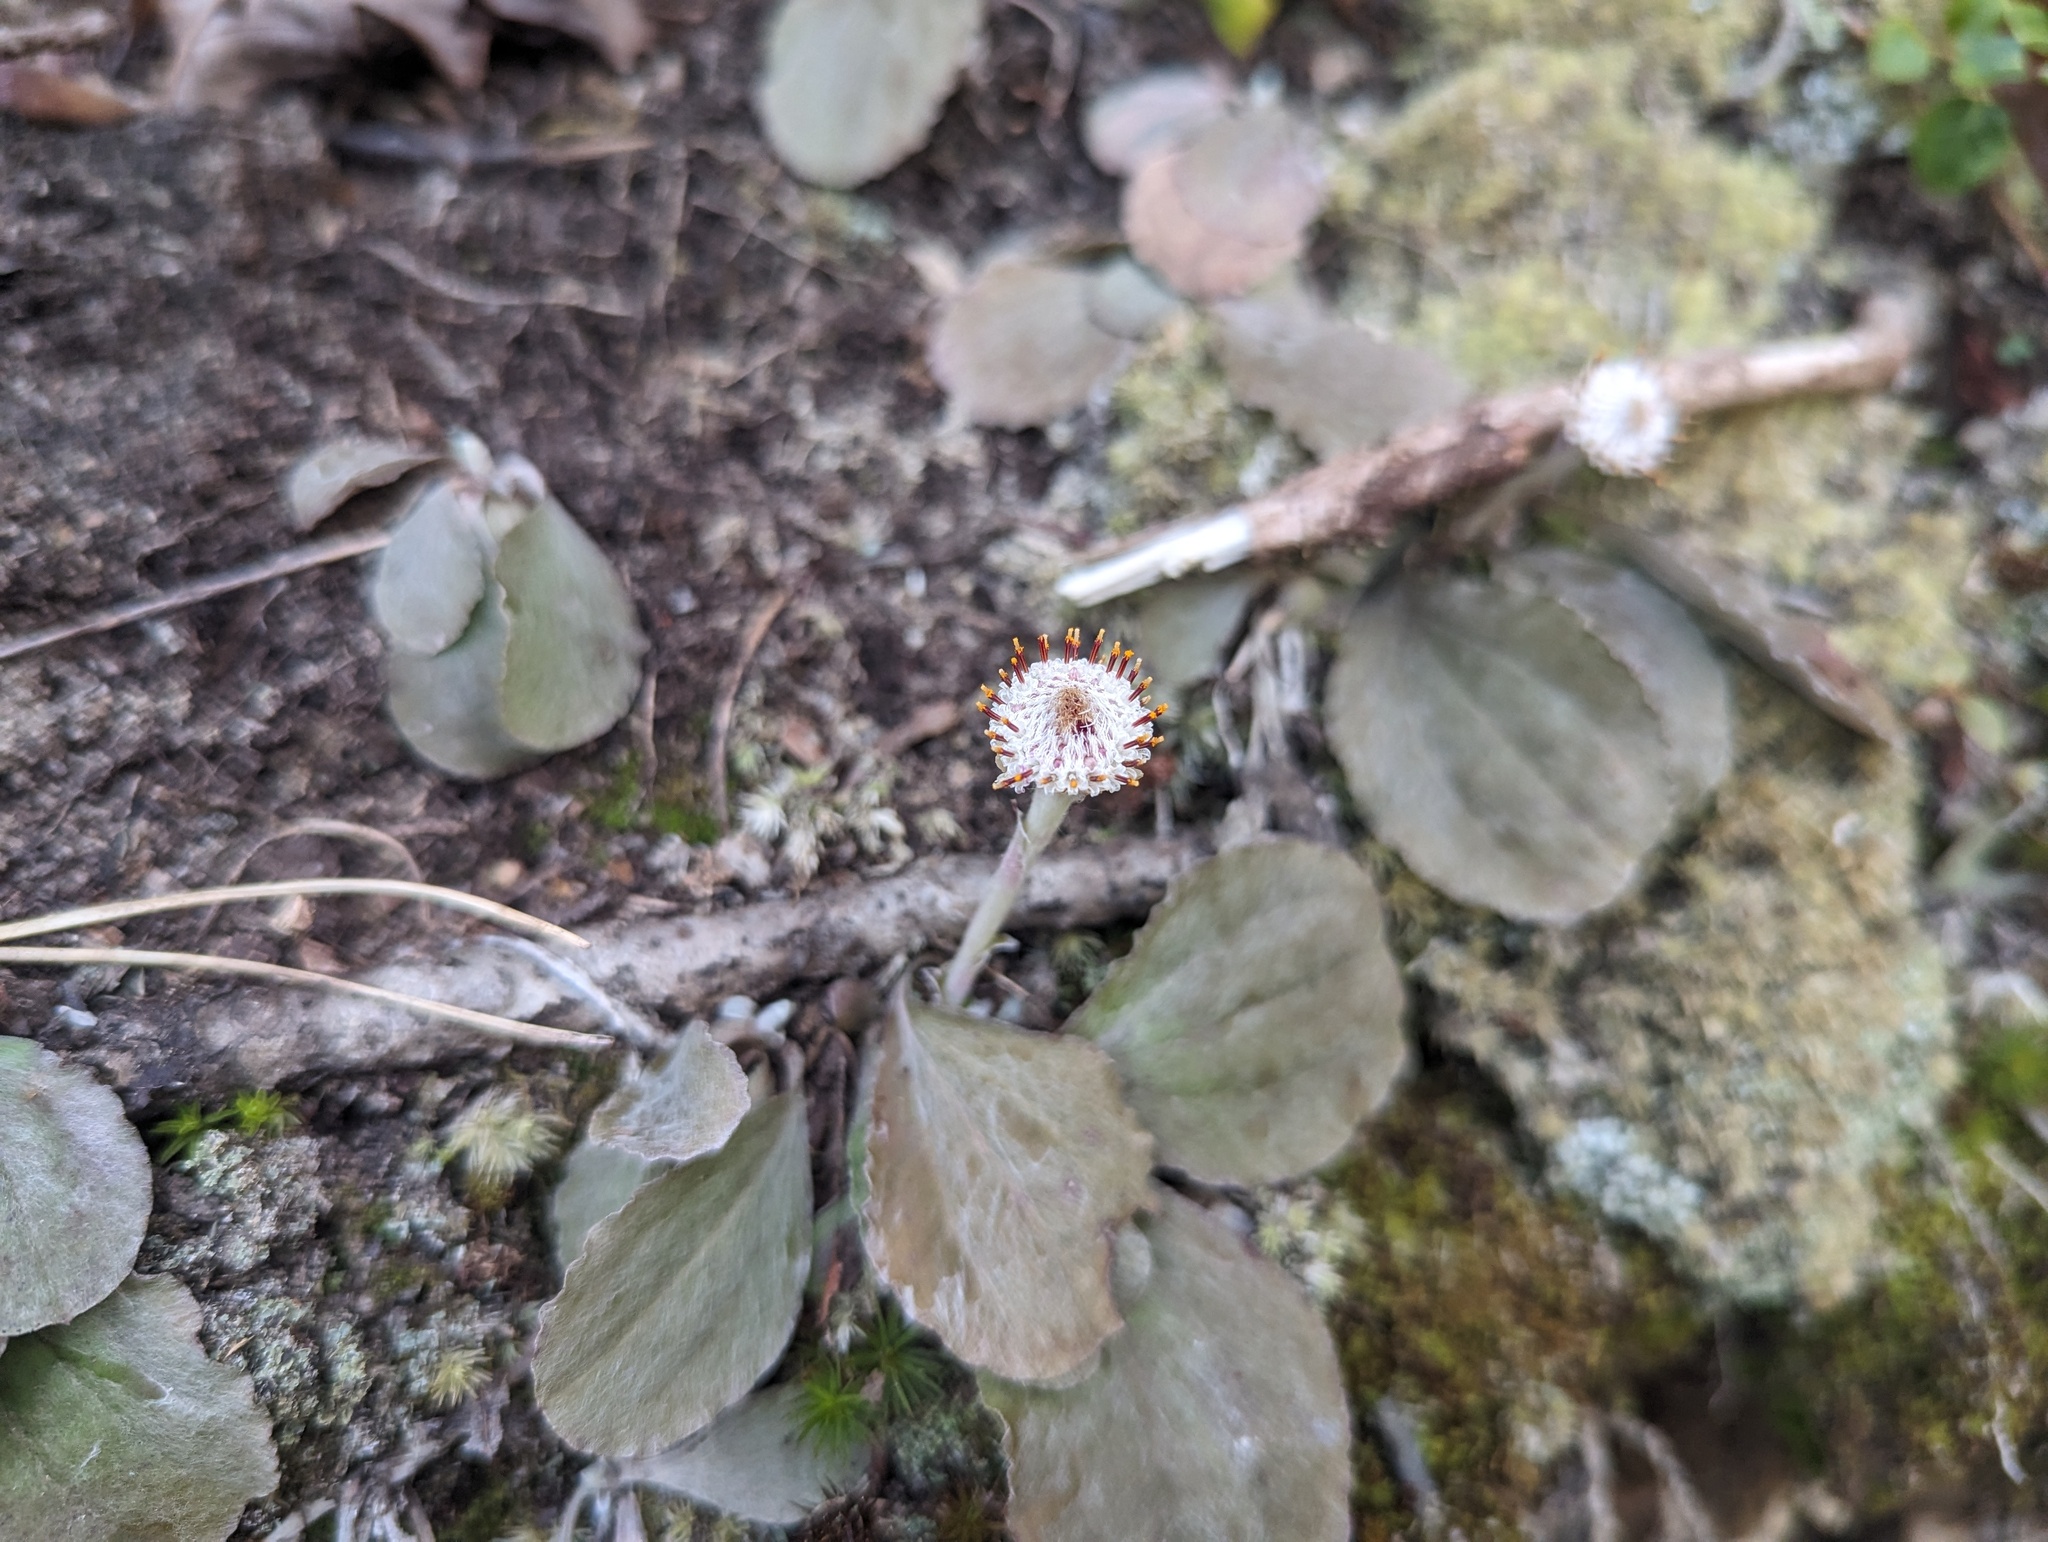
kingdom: Plantae
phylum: Tracheophyta
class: Magnoliopsida
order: Asterales
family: Asteraceae
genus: Antennaria
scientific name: Antennaria solitaria
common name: Single-head pussytoes
